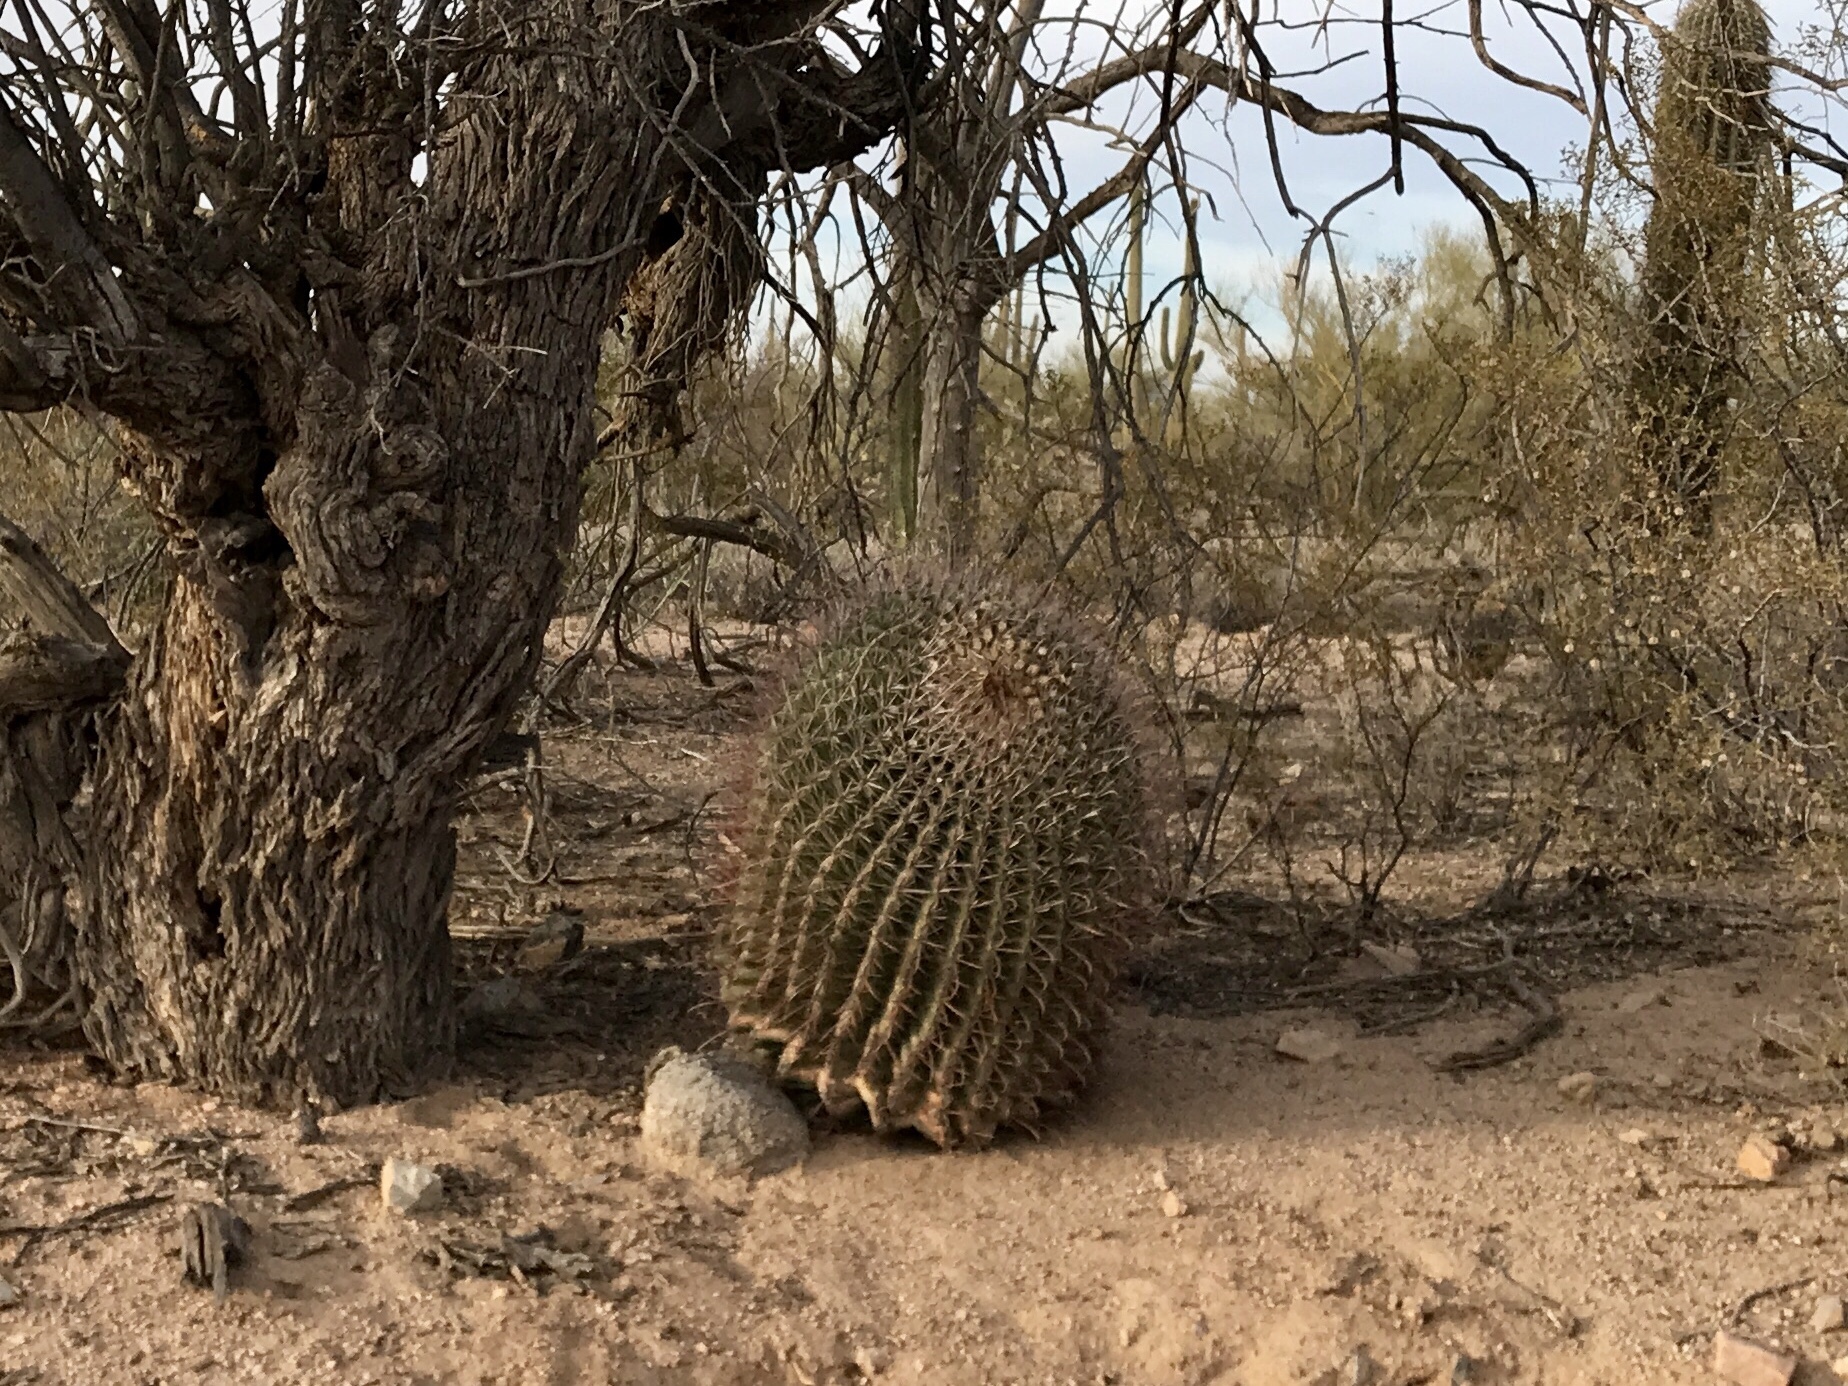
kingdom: Plantae
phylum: Tracheophyta
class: Magnoliopsida
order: Caryophyllales
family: Cactaceae
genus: Ferocactus
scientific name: Ferocactus wislizeni
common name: Candy barrel cactus
